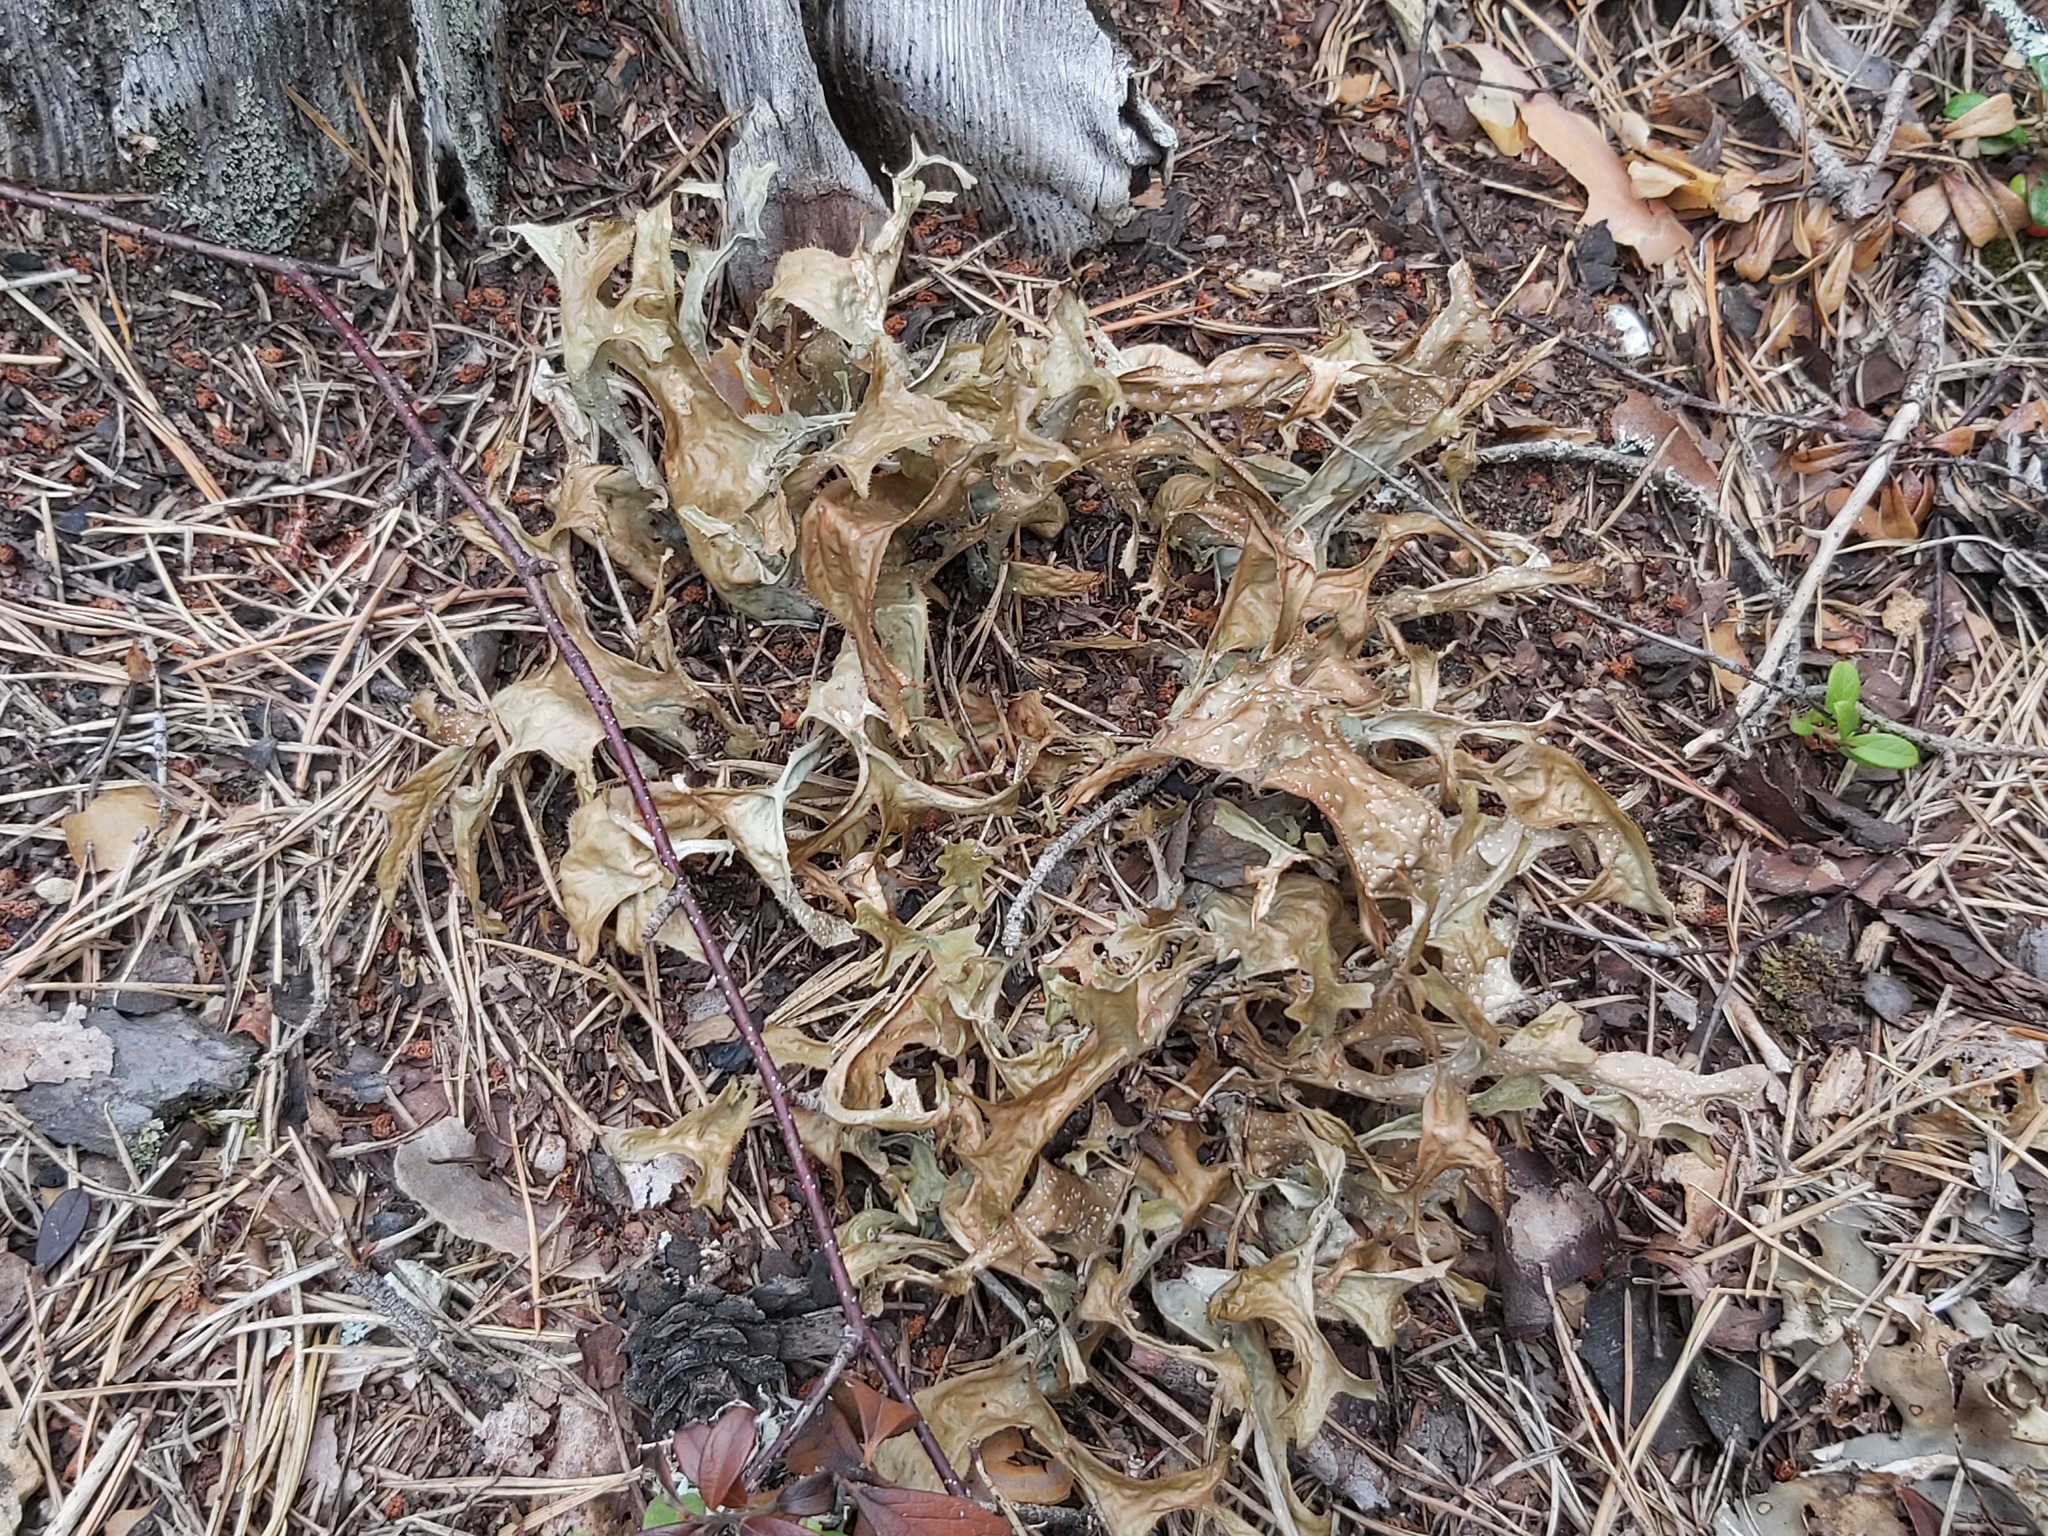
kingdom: Fungi
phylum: Ascomycota
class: Lecanoromycetes
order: Lecanorales
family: Parmeliaceae
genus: Cetraria
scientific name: Cetraria islandica
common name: Iceland lichen
